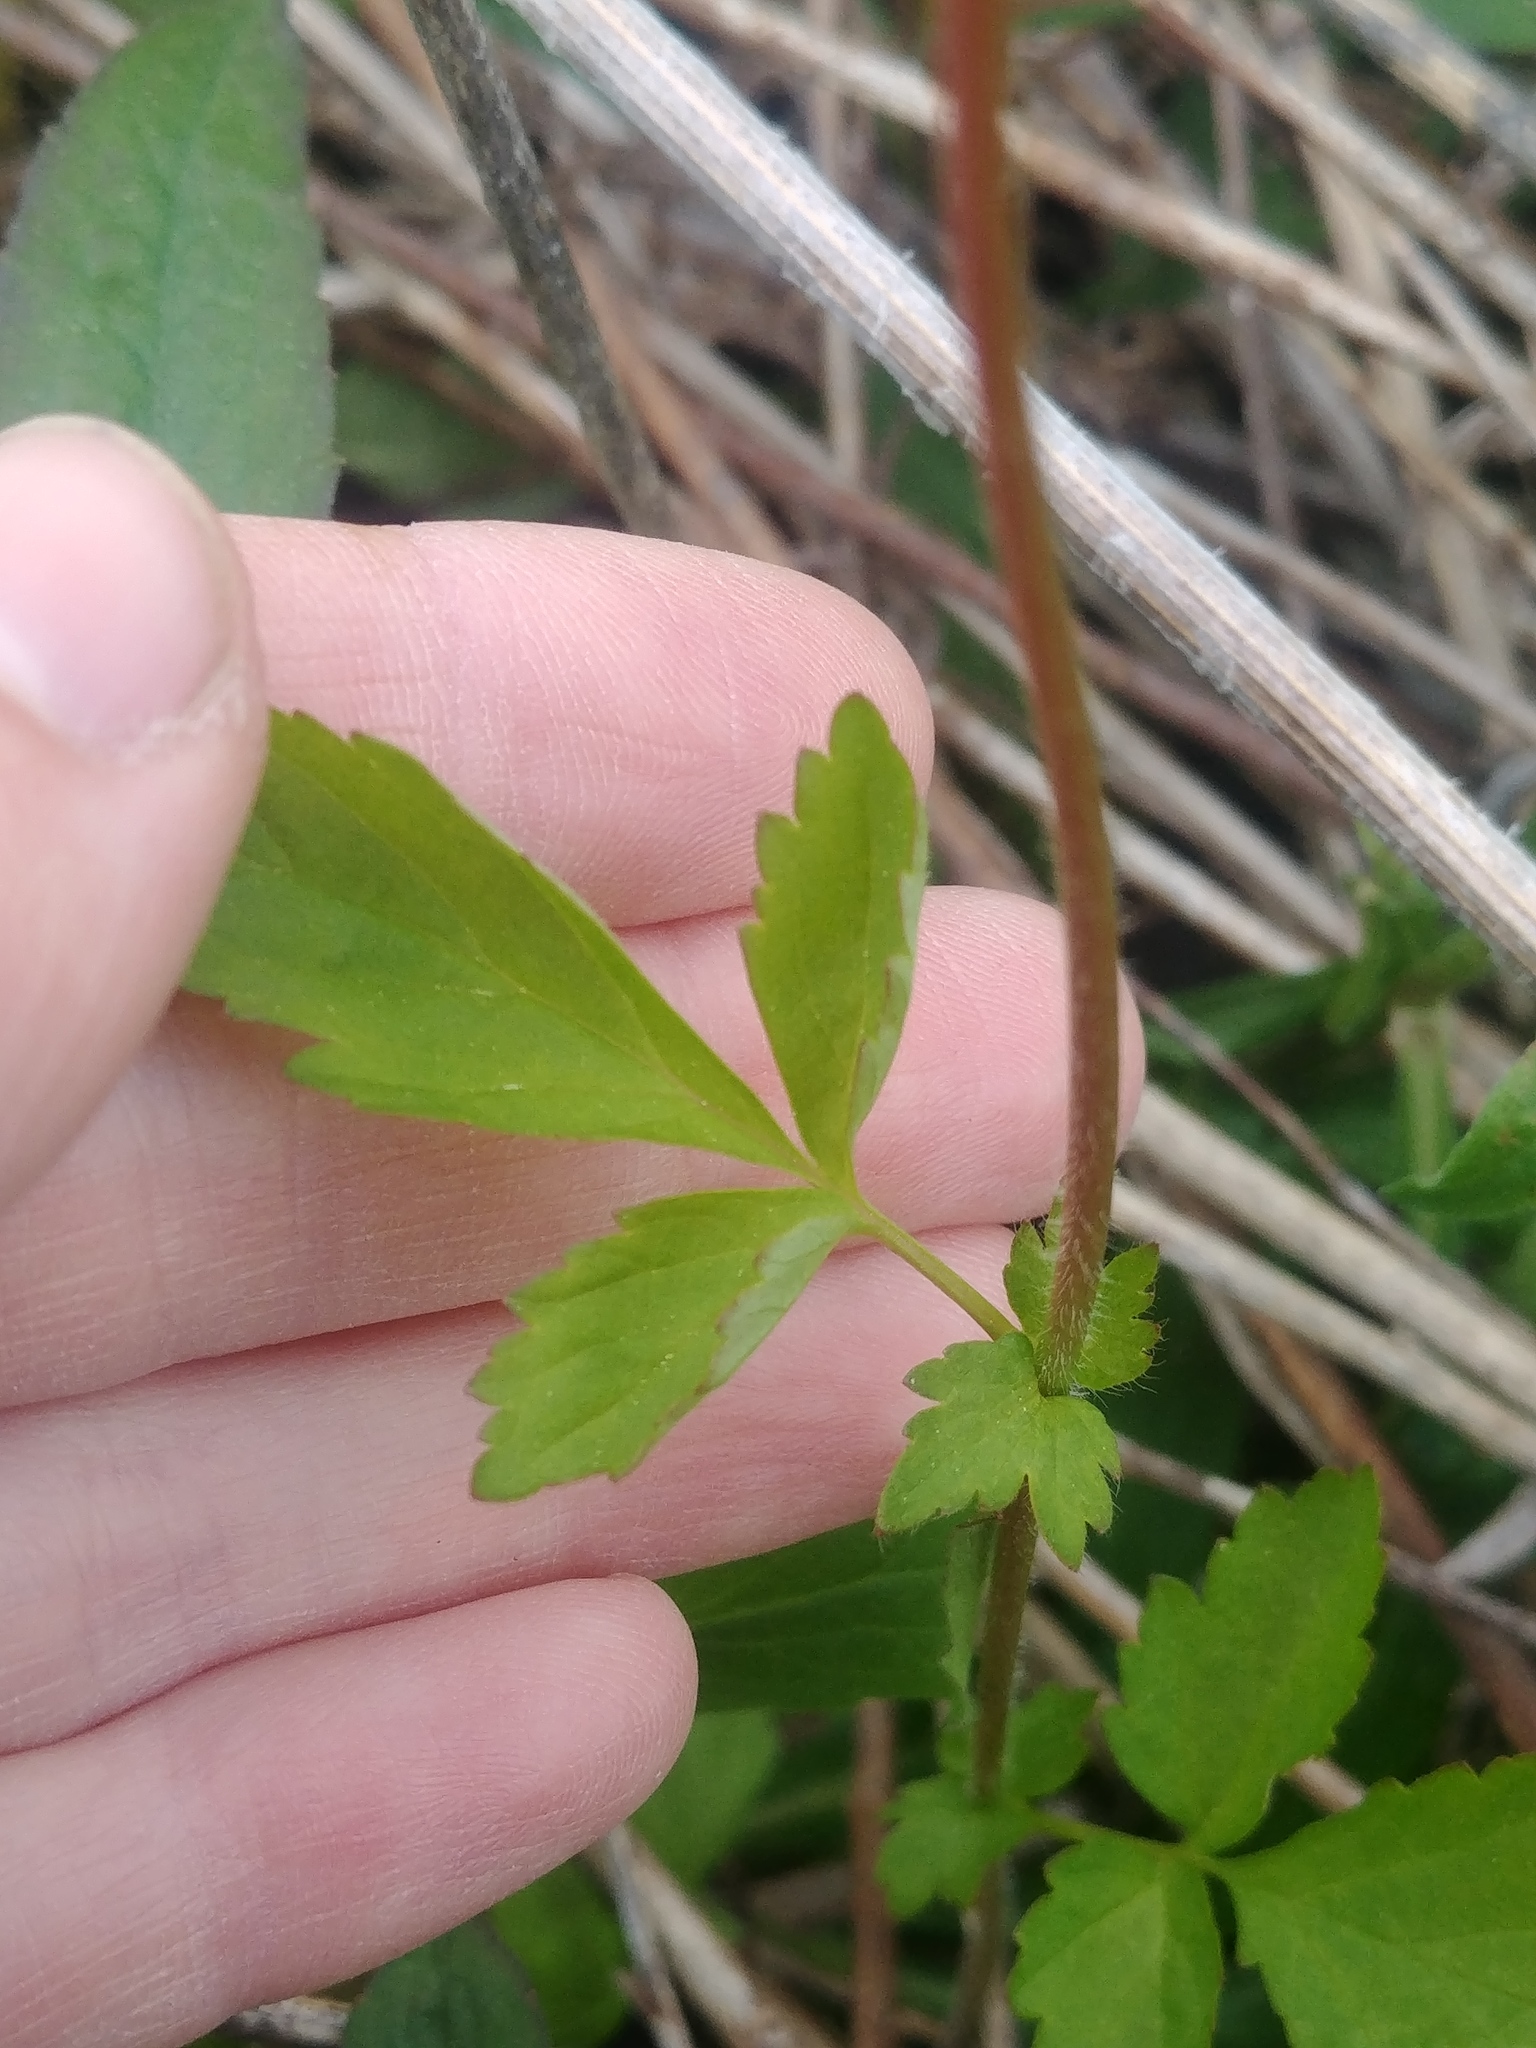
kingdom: Plantae
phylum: Tracheophyta
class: Magnoliopsida
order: Rosales
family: Rosaceae
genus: Geum
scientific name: Geum vernum
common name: Spring avens
